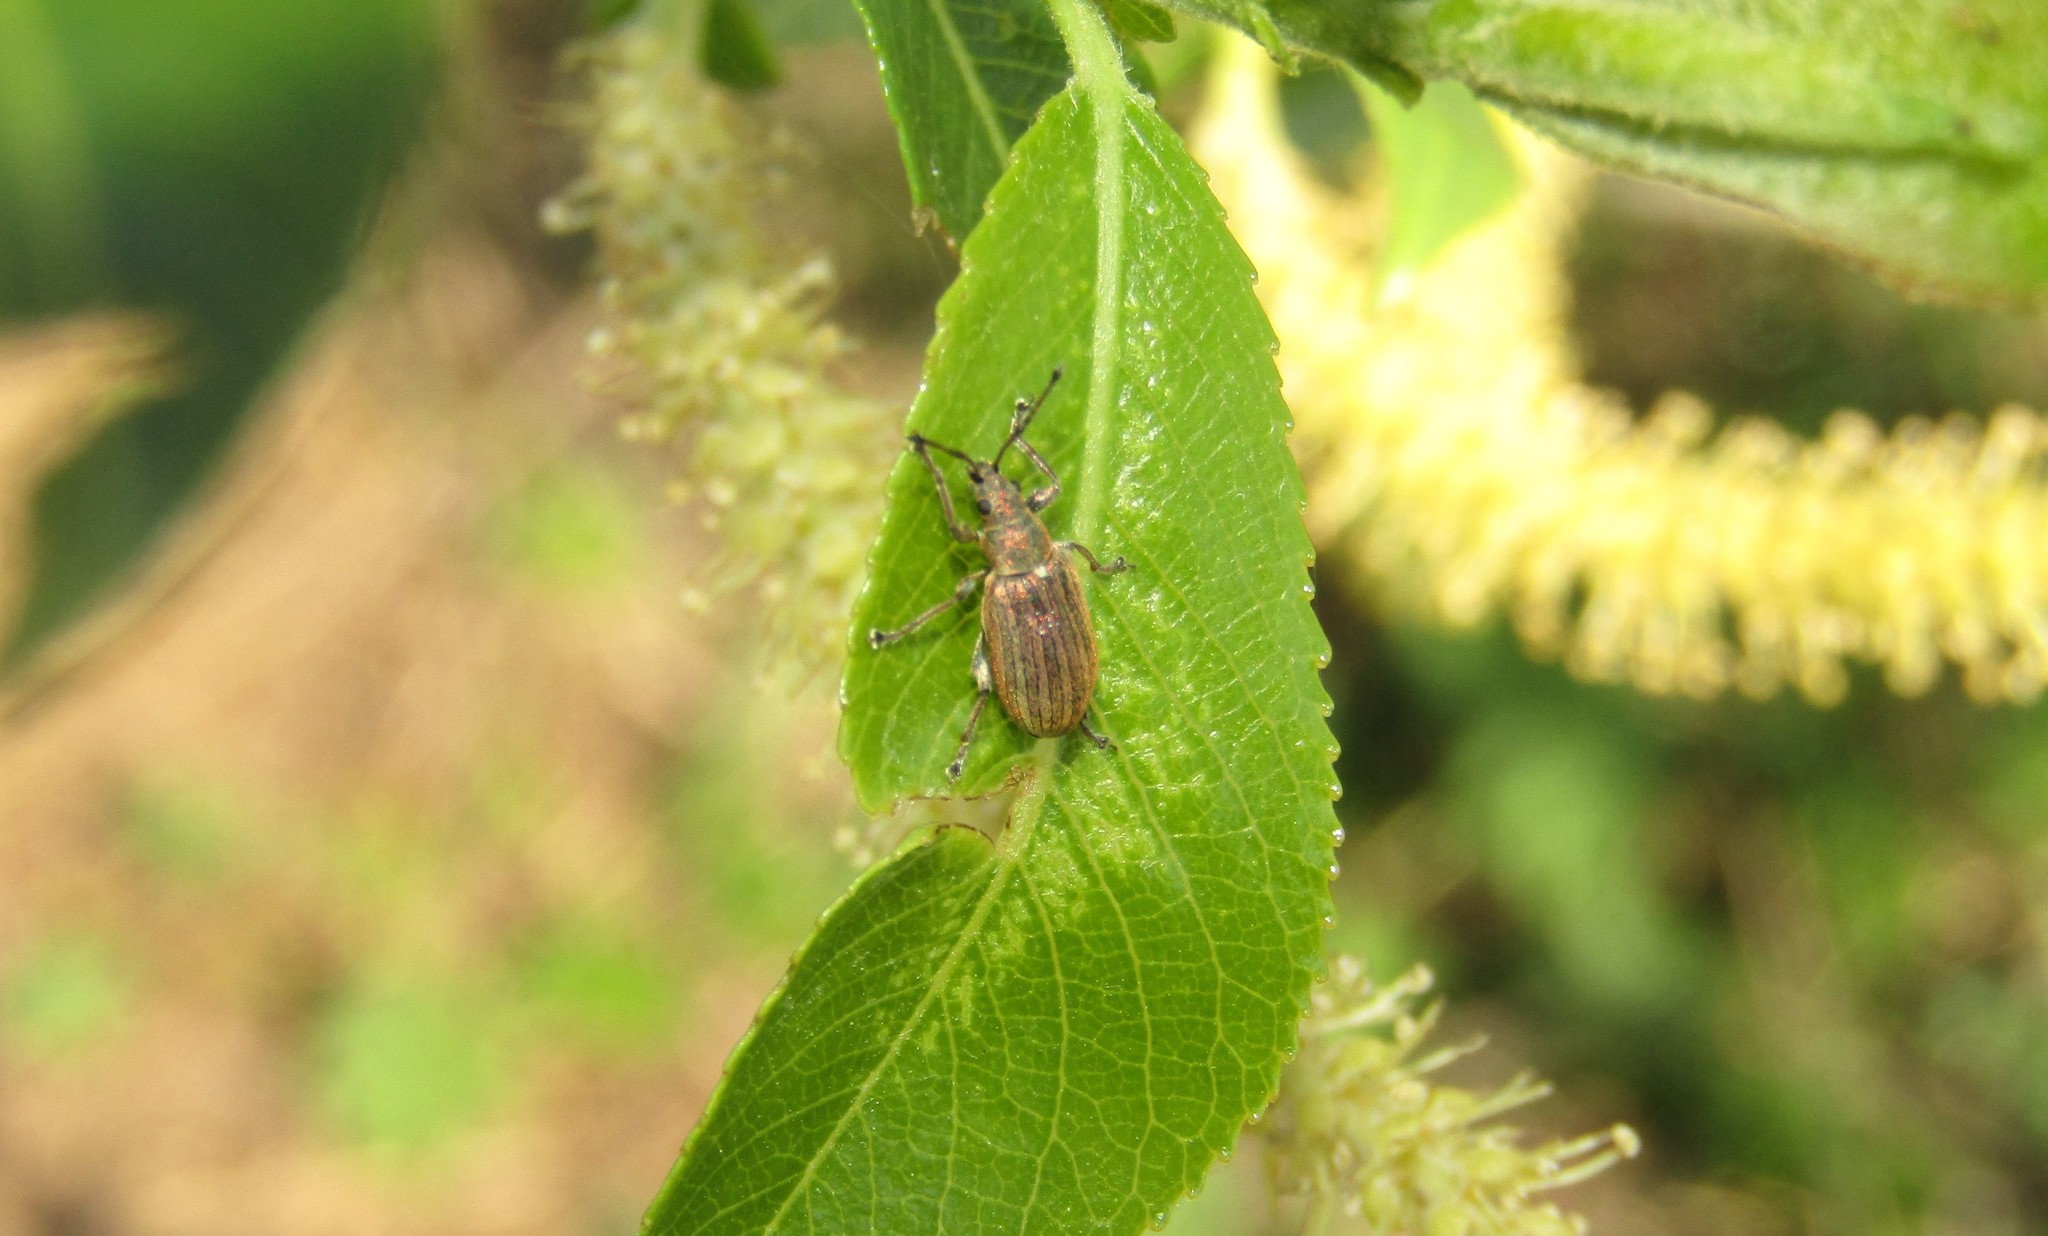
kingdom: Animalia
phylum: Arthropoda
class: Insecta
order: Coleoptera
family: Curculionidae
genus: Phyllobius
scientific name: Phyllobius pyri
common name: Common leaf weevil
